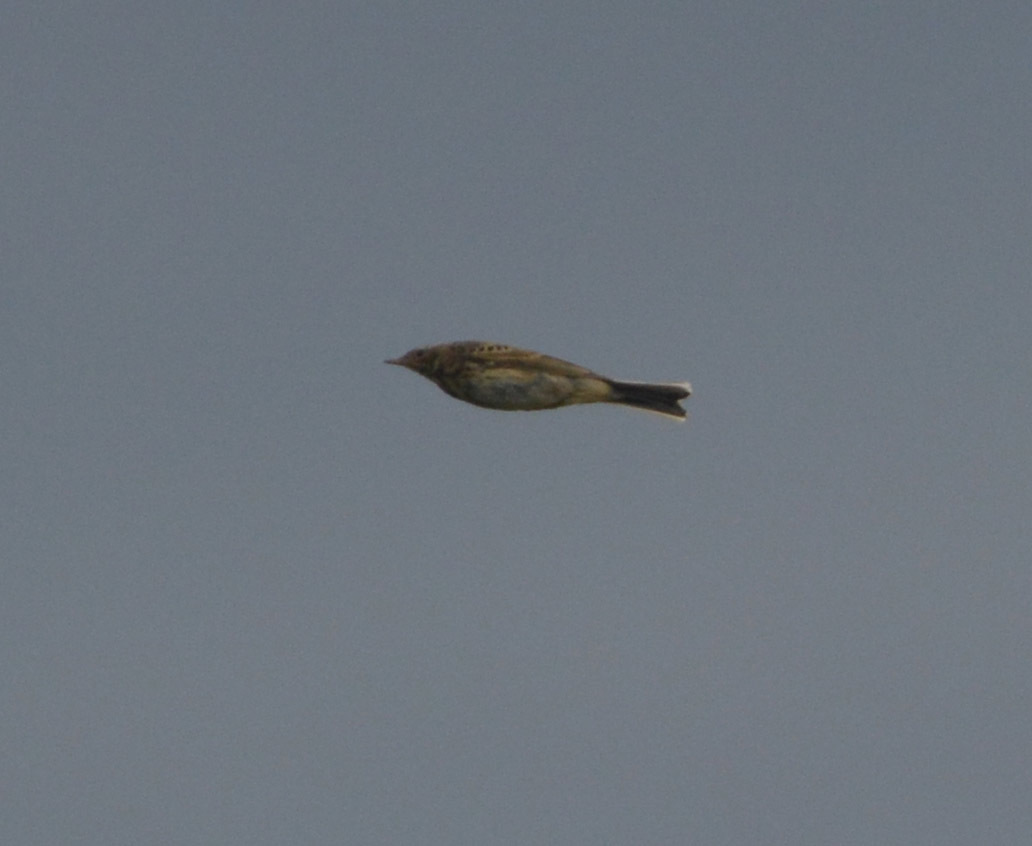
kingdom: Animalia
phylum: Chordata
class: Aves
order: Passeriformes
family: Motacillidae
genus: Anthus
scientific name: Anthus trivialis
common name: Tree pipit
